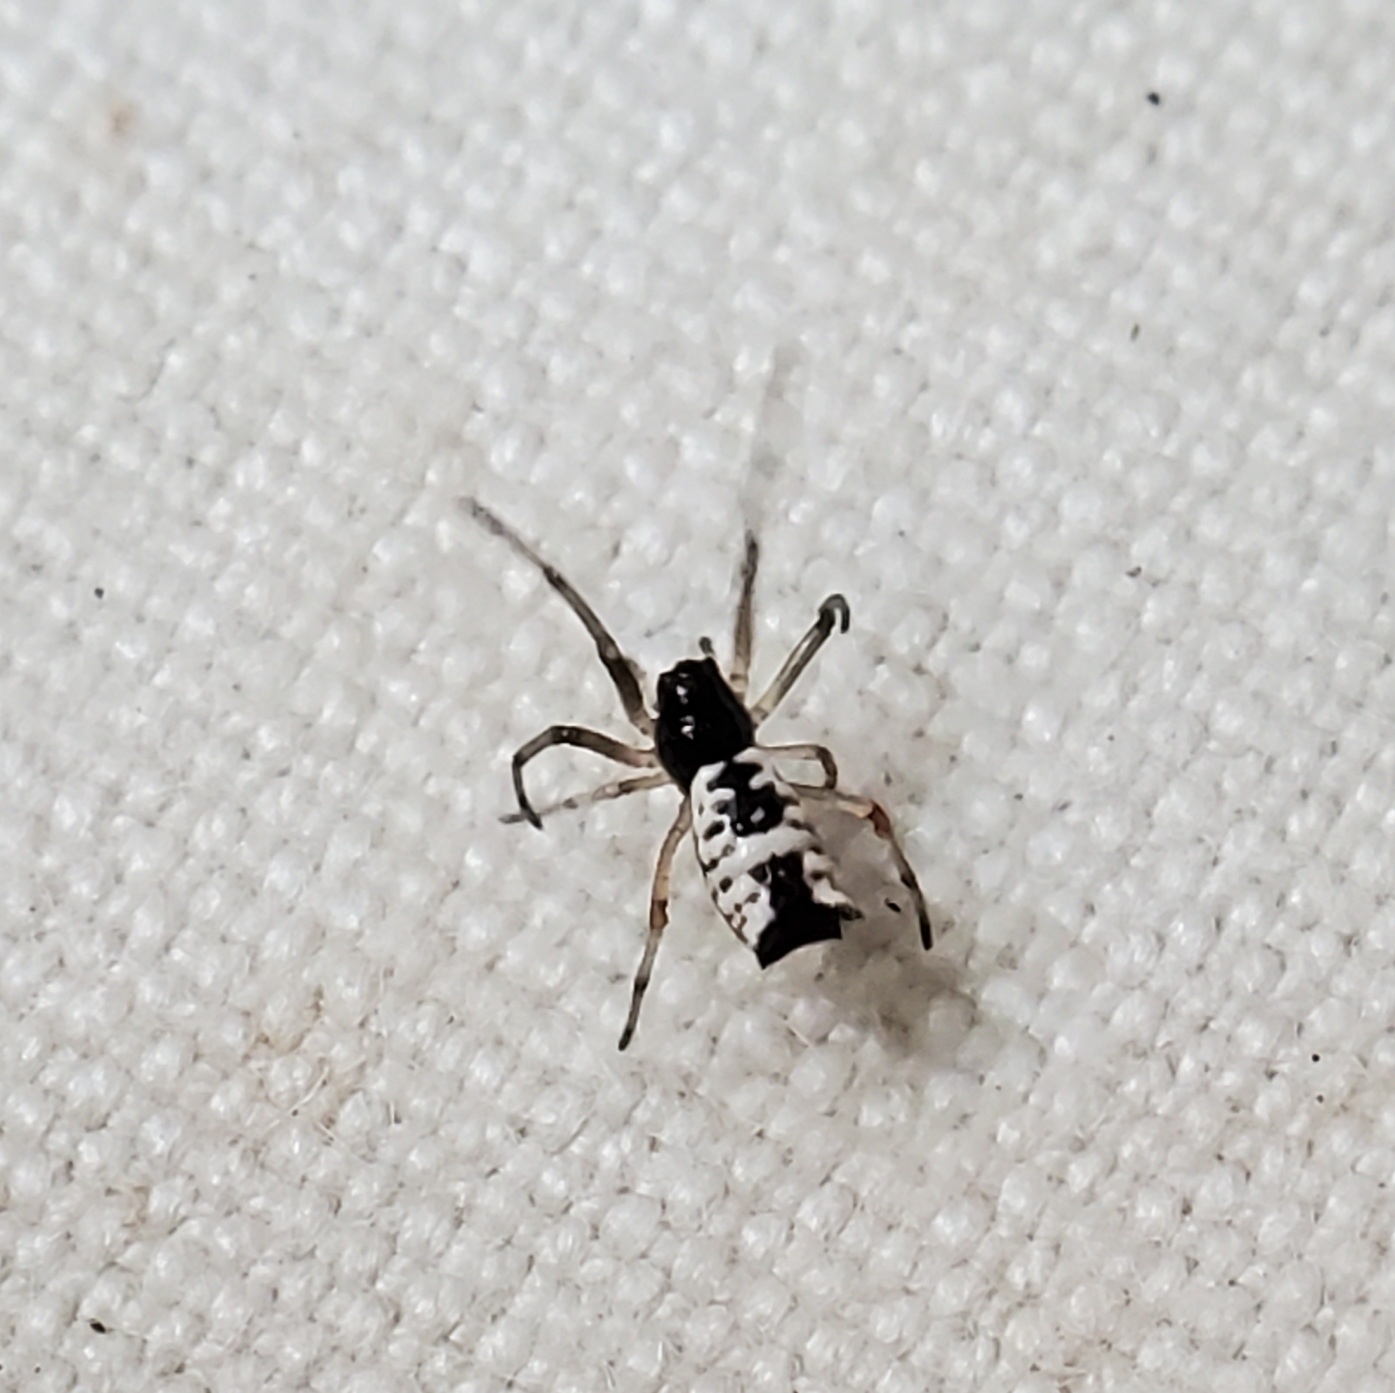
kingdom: Animalia
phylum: Arthropoda
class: Arachnida
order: Araneae
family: Araneidae
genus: Micrathena
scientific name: Micrathena mitrata
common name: Orb weavers
